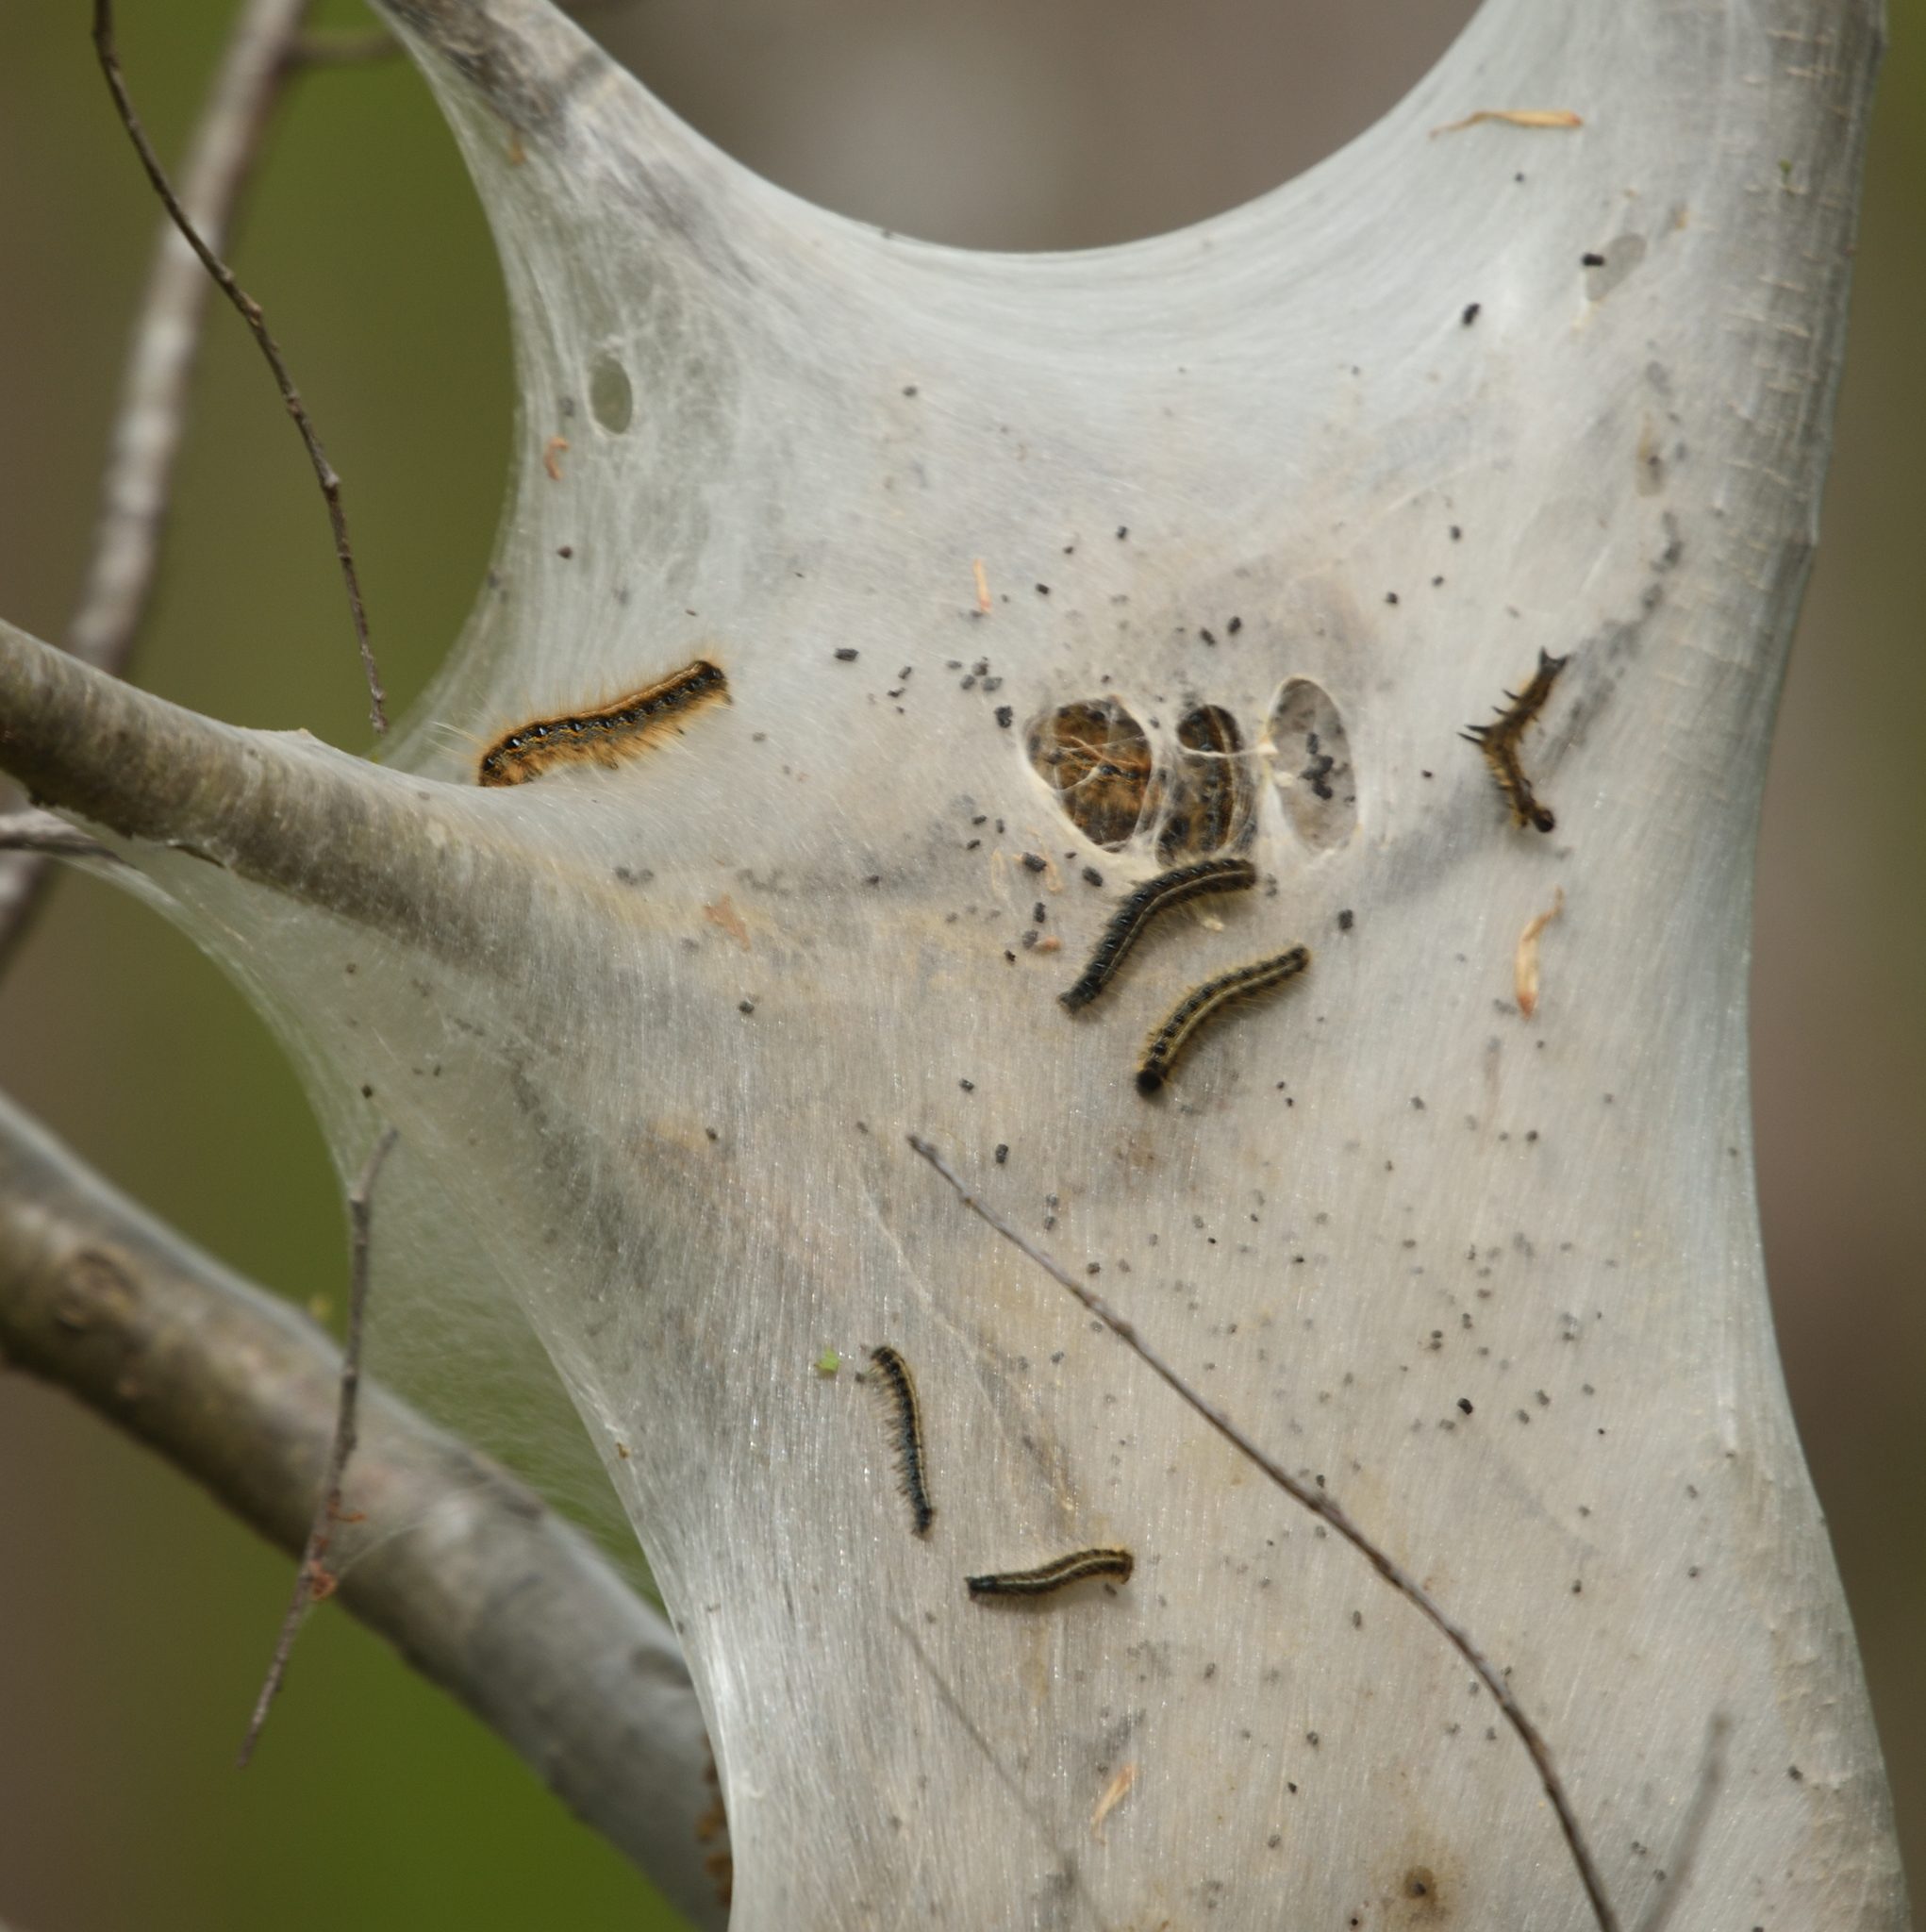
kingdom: Animalia
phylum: Arthropoda
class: Insecta
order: Lepidoptera
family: Lasiocampidae
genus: Malacosoma
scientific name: Malacosoma americana
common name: Eastern tent caterpillar moth
